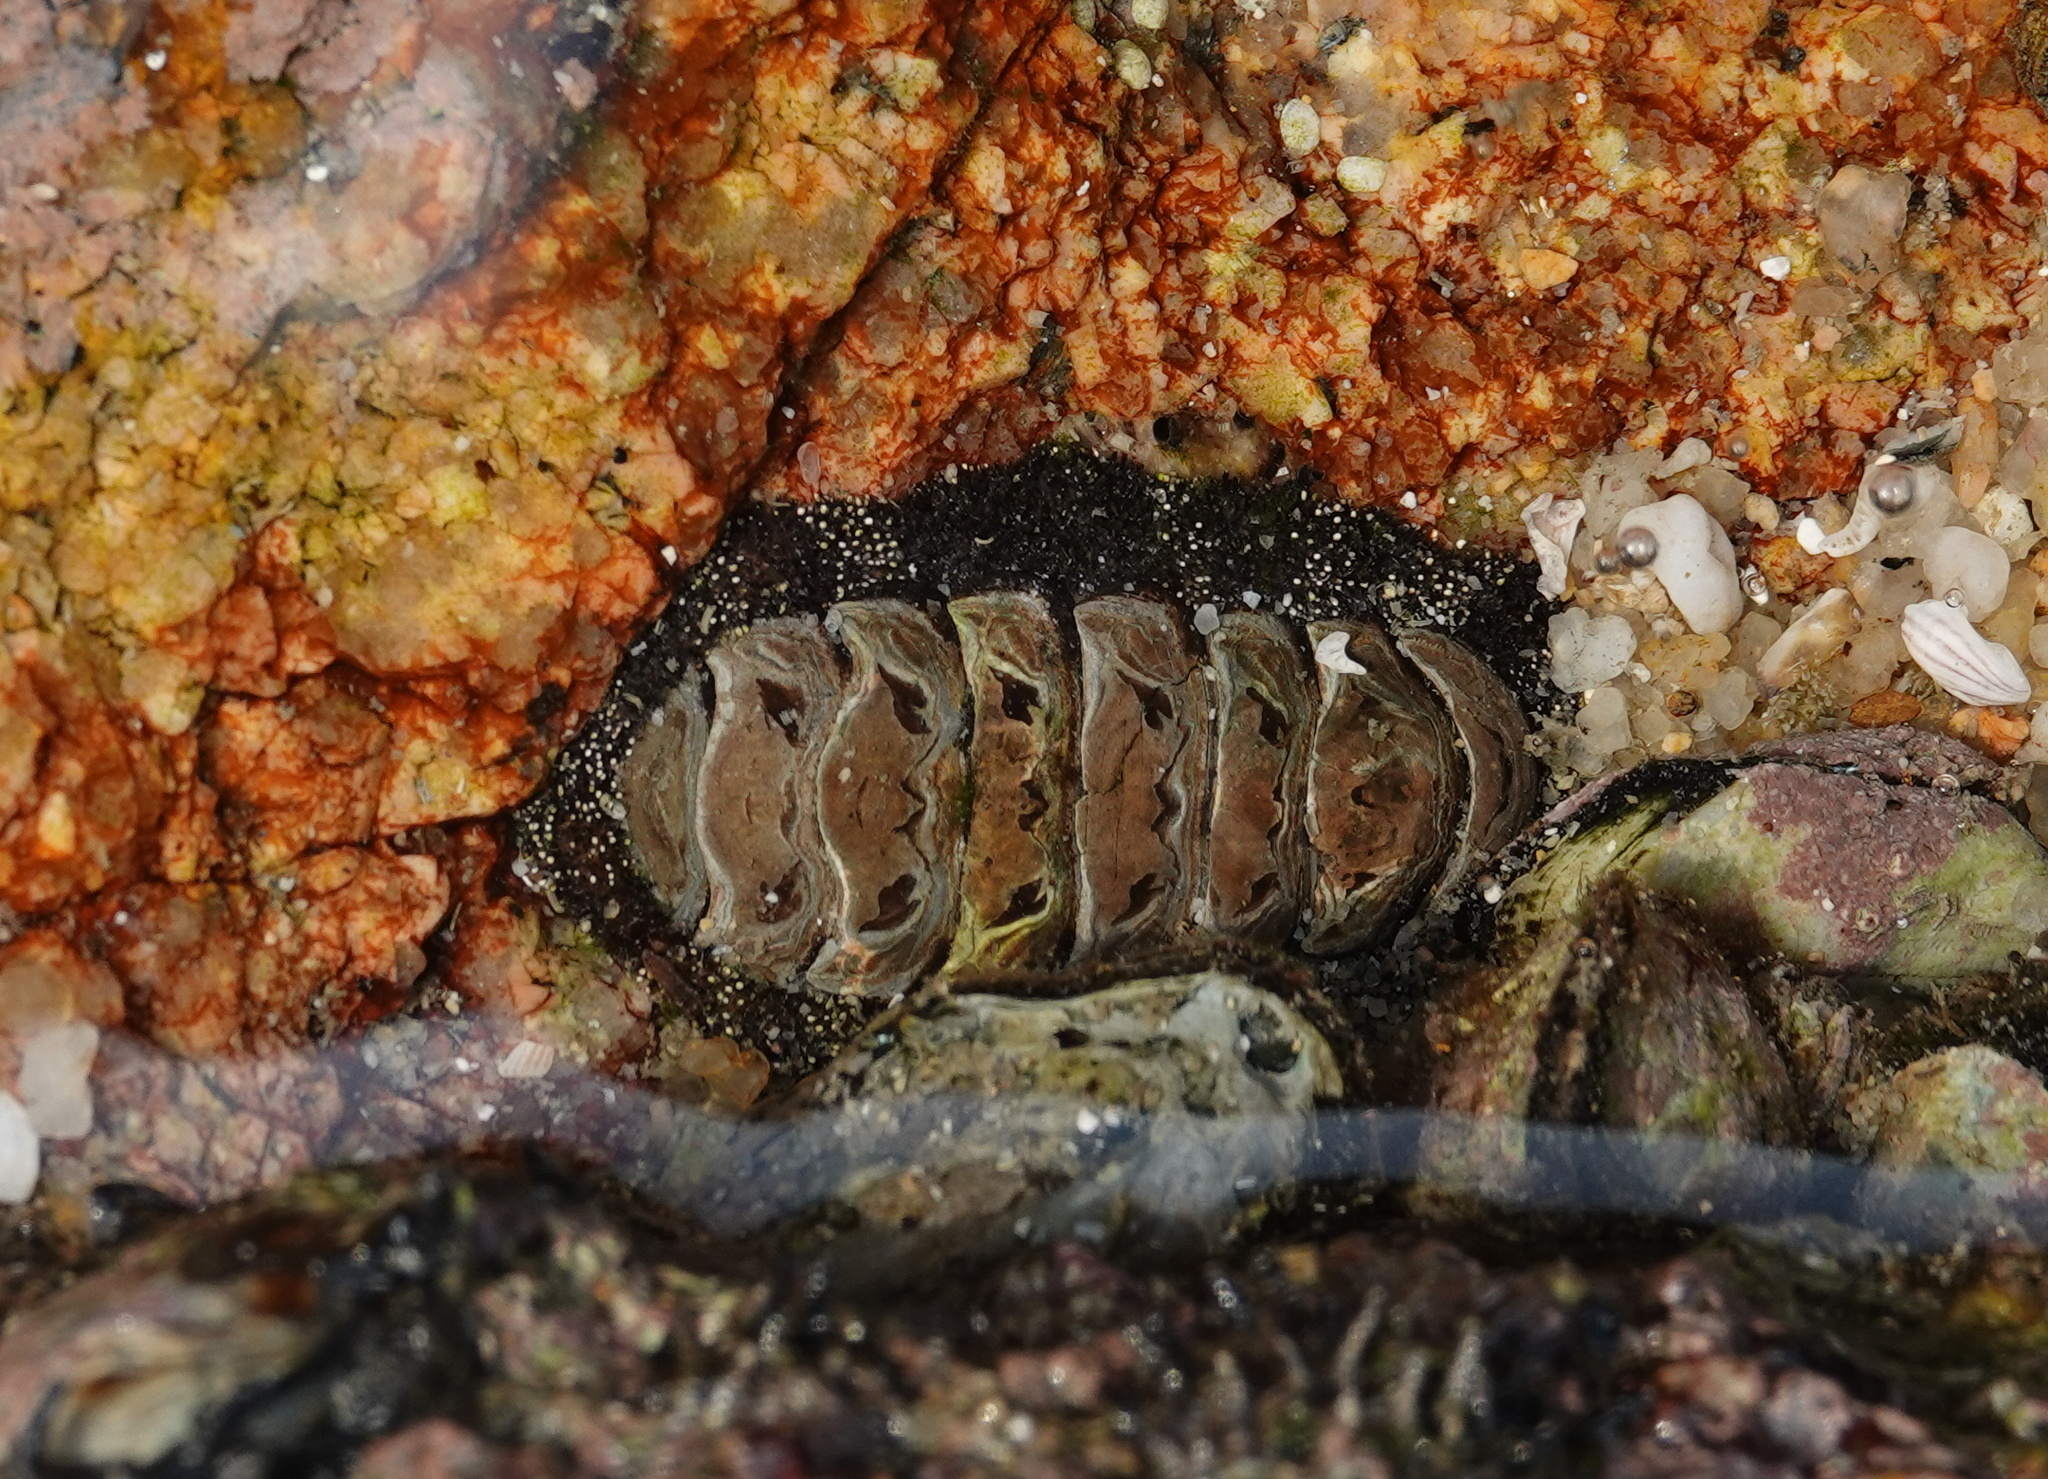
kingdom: Animalia
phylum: Mollusca
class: Polyplacophora
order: Chitonida
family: Chitonidae
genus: Liolophura
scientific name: Liolophura japonica
